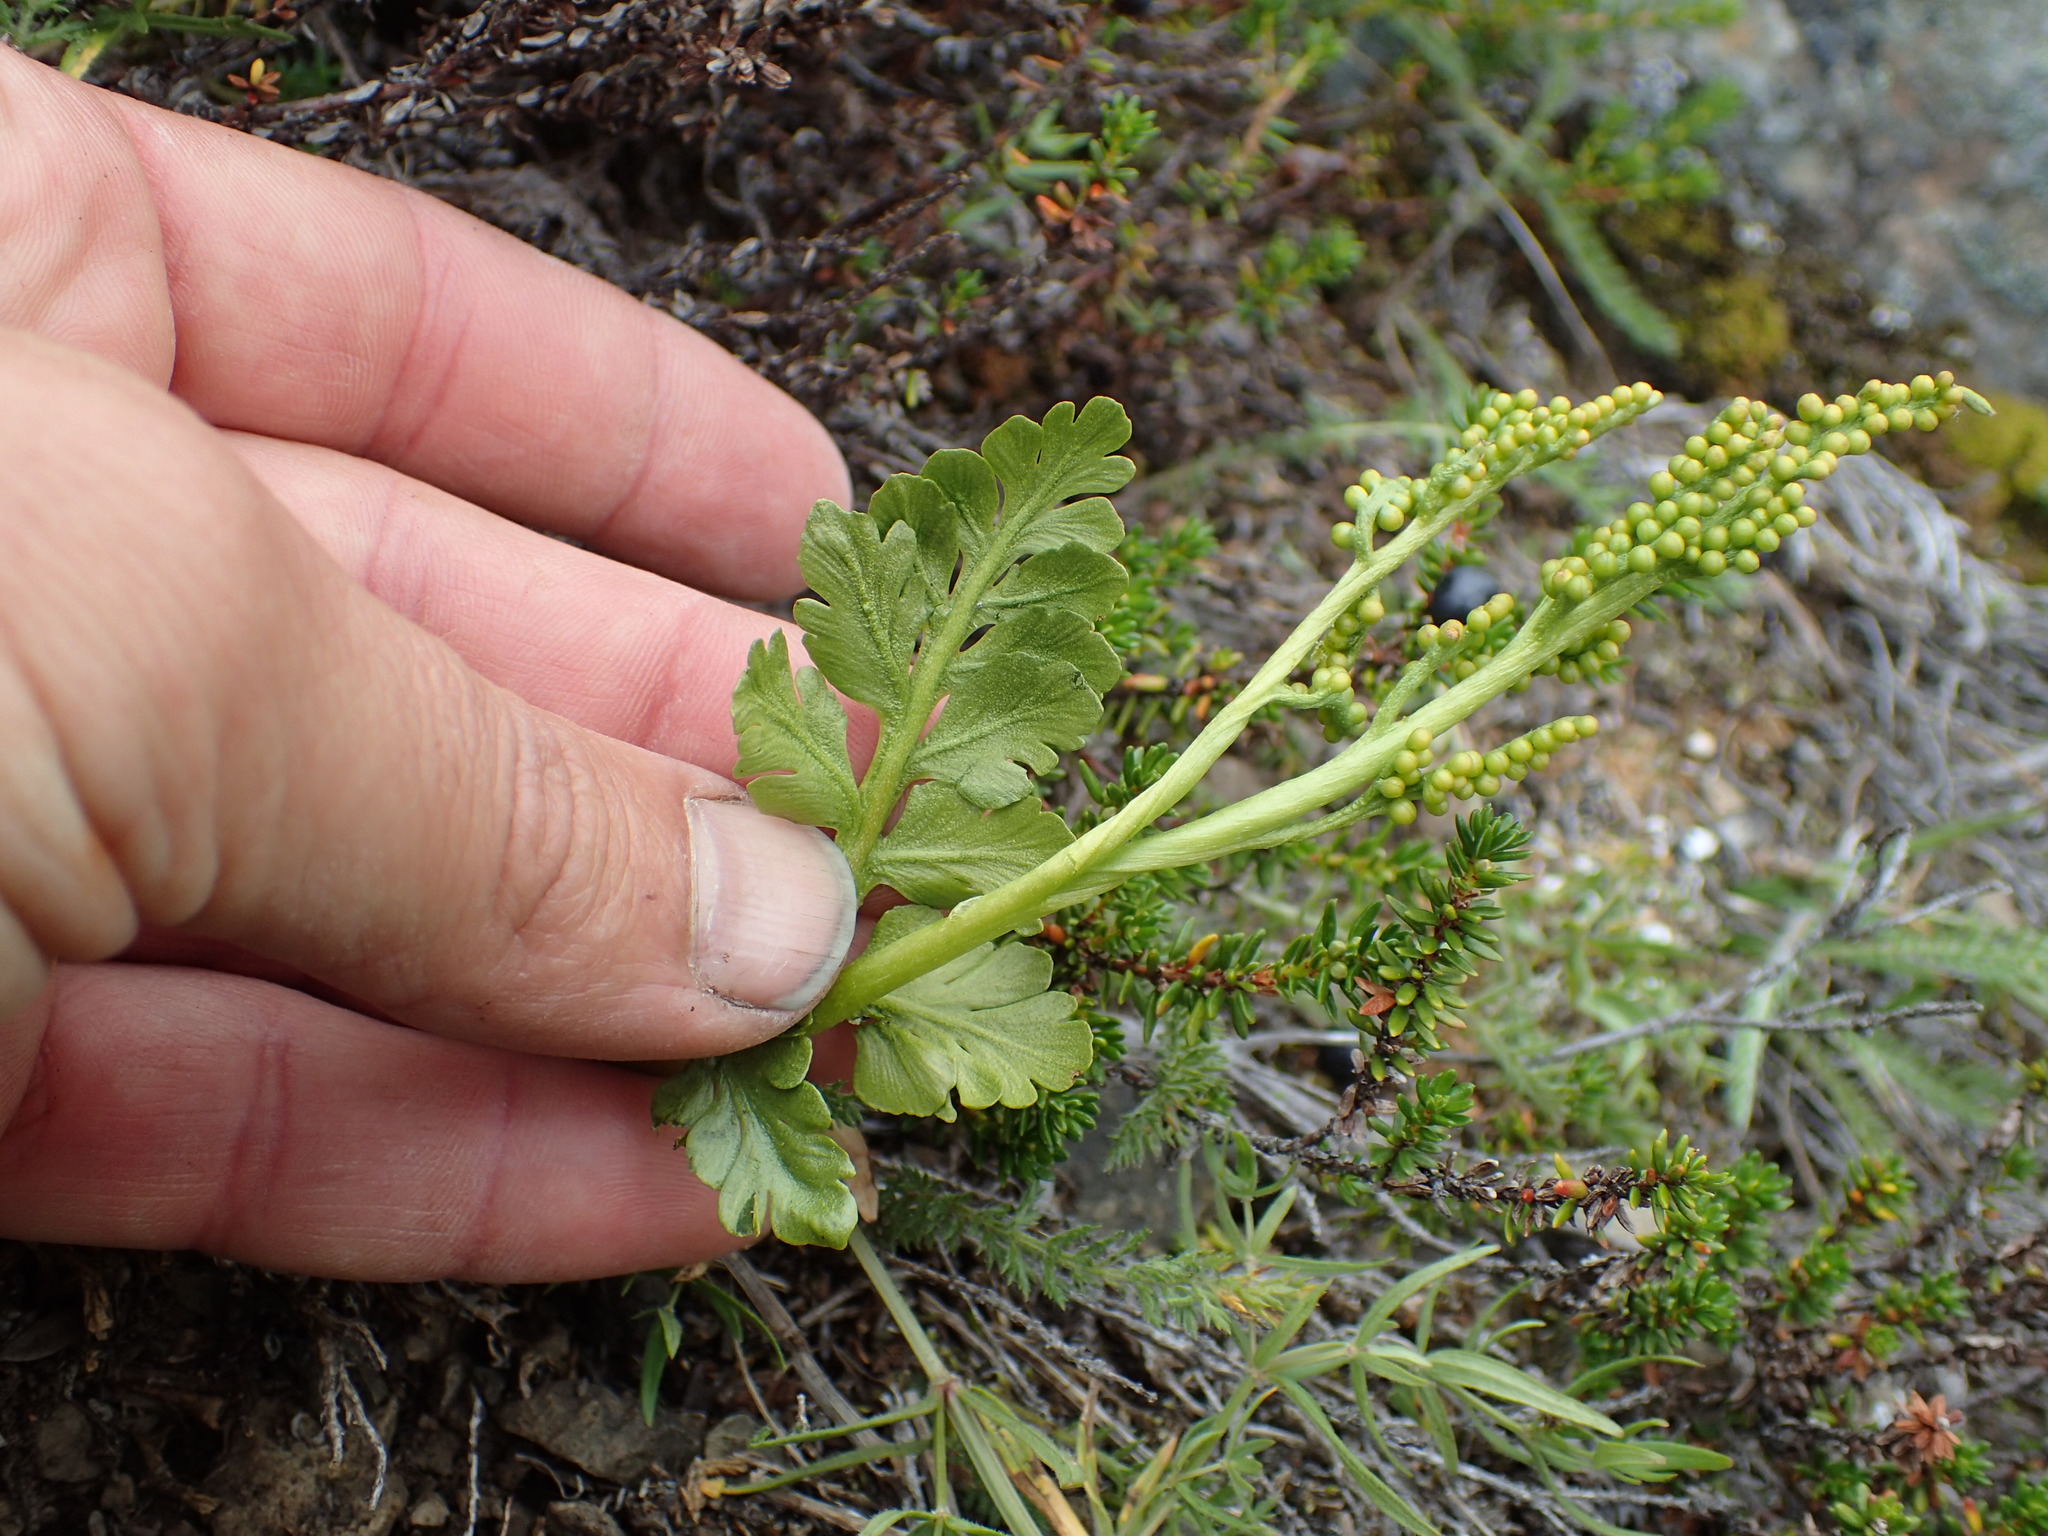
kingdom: Plantae
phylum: Tracheophyta
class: Polypodiopsida
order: Ophioglossales
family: Ophioglossaceae
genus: Botrychium
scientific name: Botrychium pinnatum
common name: Northwestern moonwort
